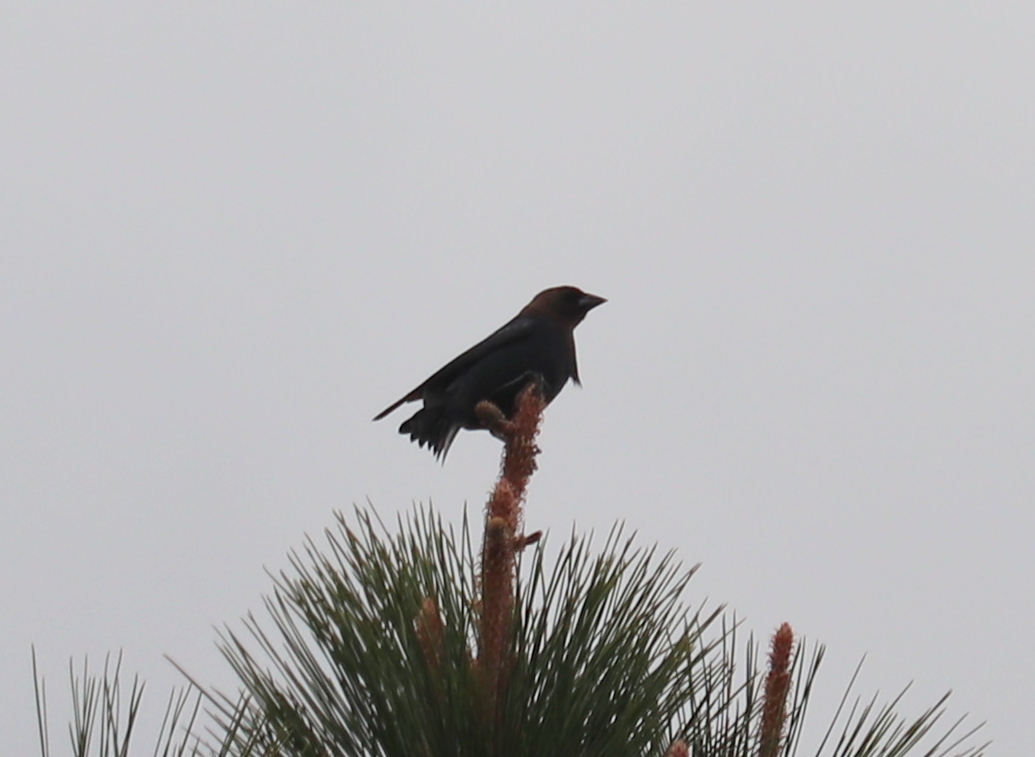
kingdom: Animalia
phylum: Chordata
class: Aves
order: Passeriformes
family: Icteridae
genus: Molothrus
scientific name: Molothrus ater
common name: Brown-headed cowbird
